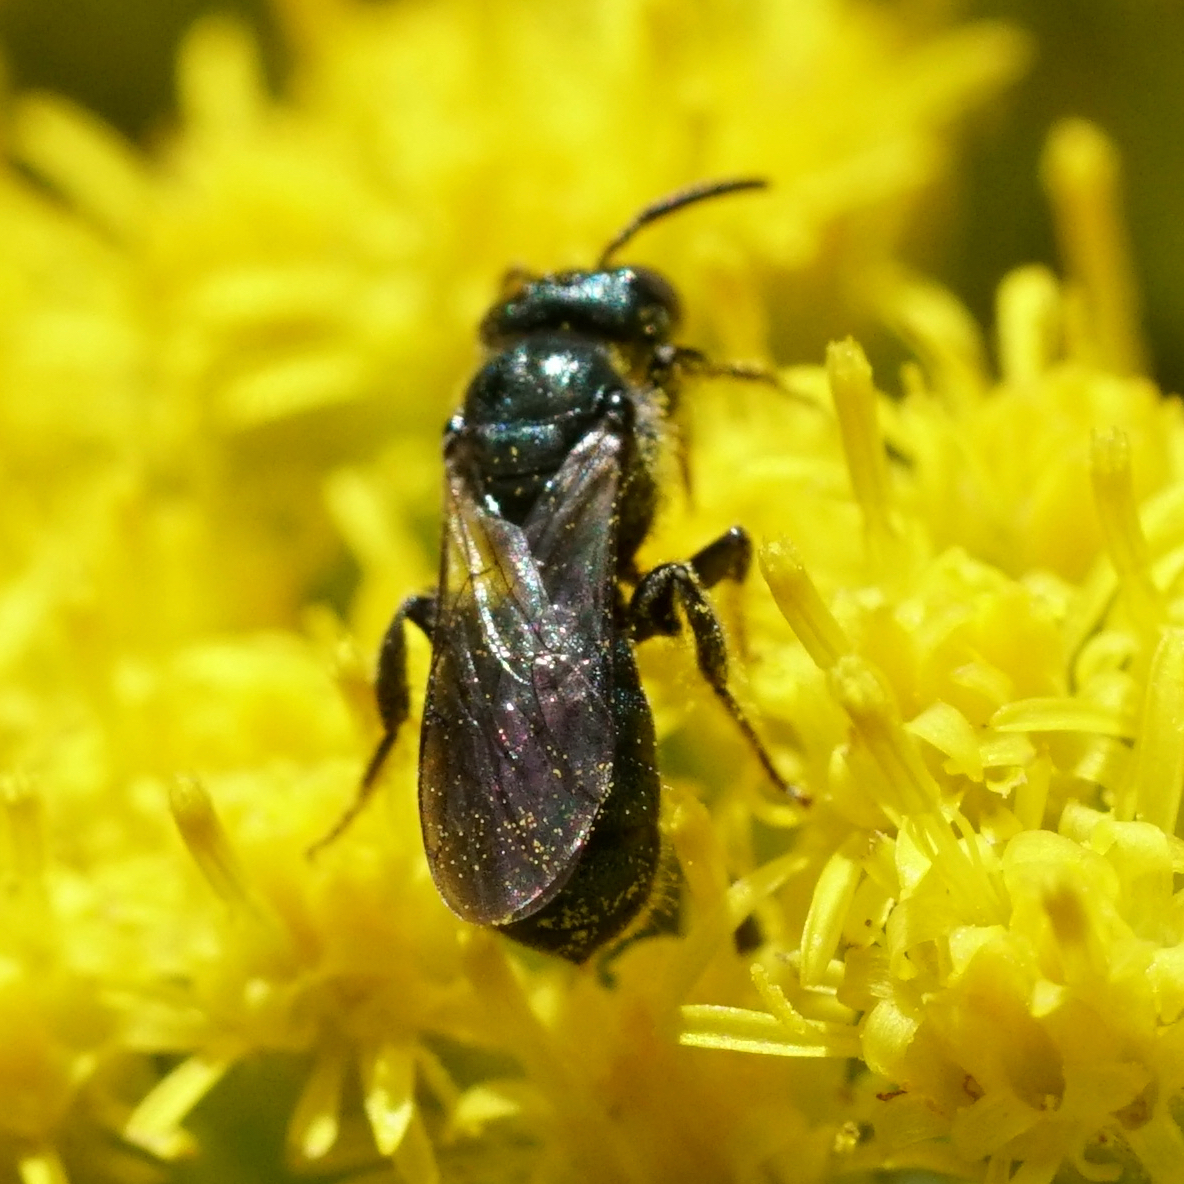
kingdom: Animalia
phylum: Arthropoda
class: Insecta
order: Hymenoptera
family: Apidae
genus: Ceratina
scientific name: Ceratina calcarata
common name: Spurred carpenter bee
